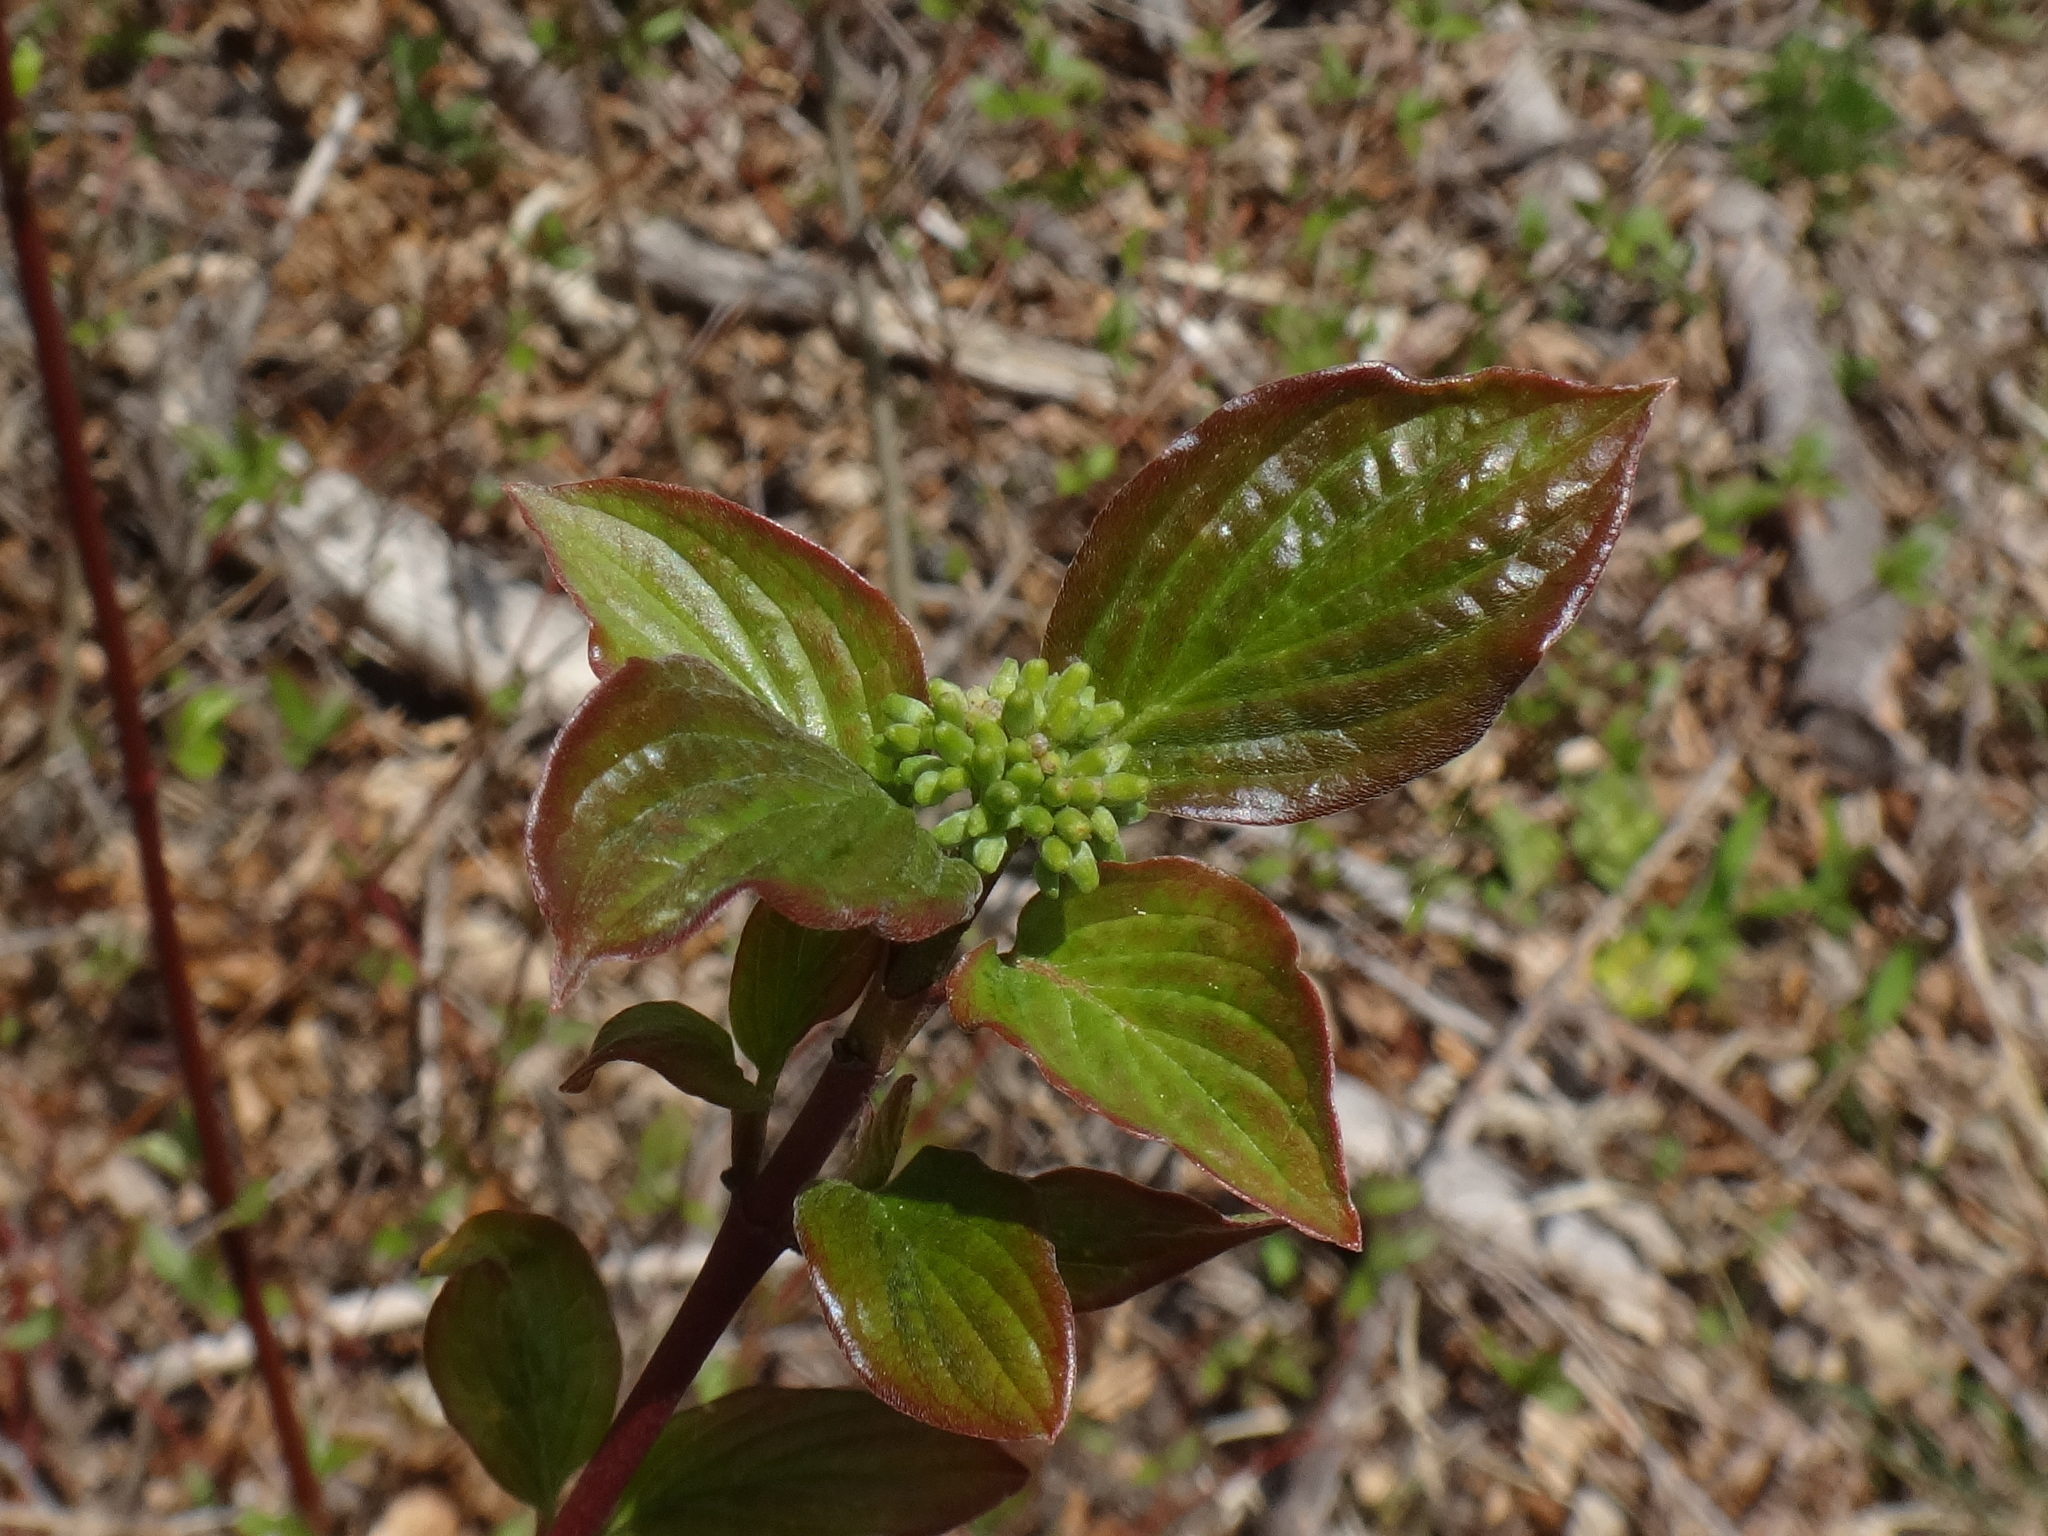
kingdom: Plantae
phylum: Tracheophyta
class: Magnoliopsida
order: Cornales
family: Cornaceae
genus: Cornus
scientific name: Cornus sanguinea
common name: Dogwood
